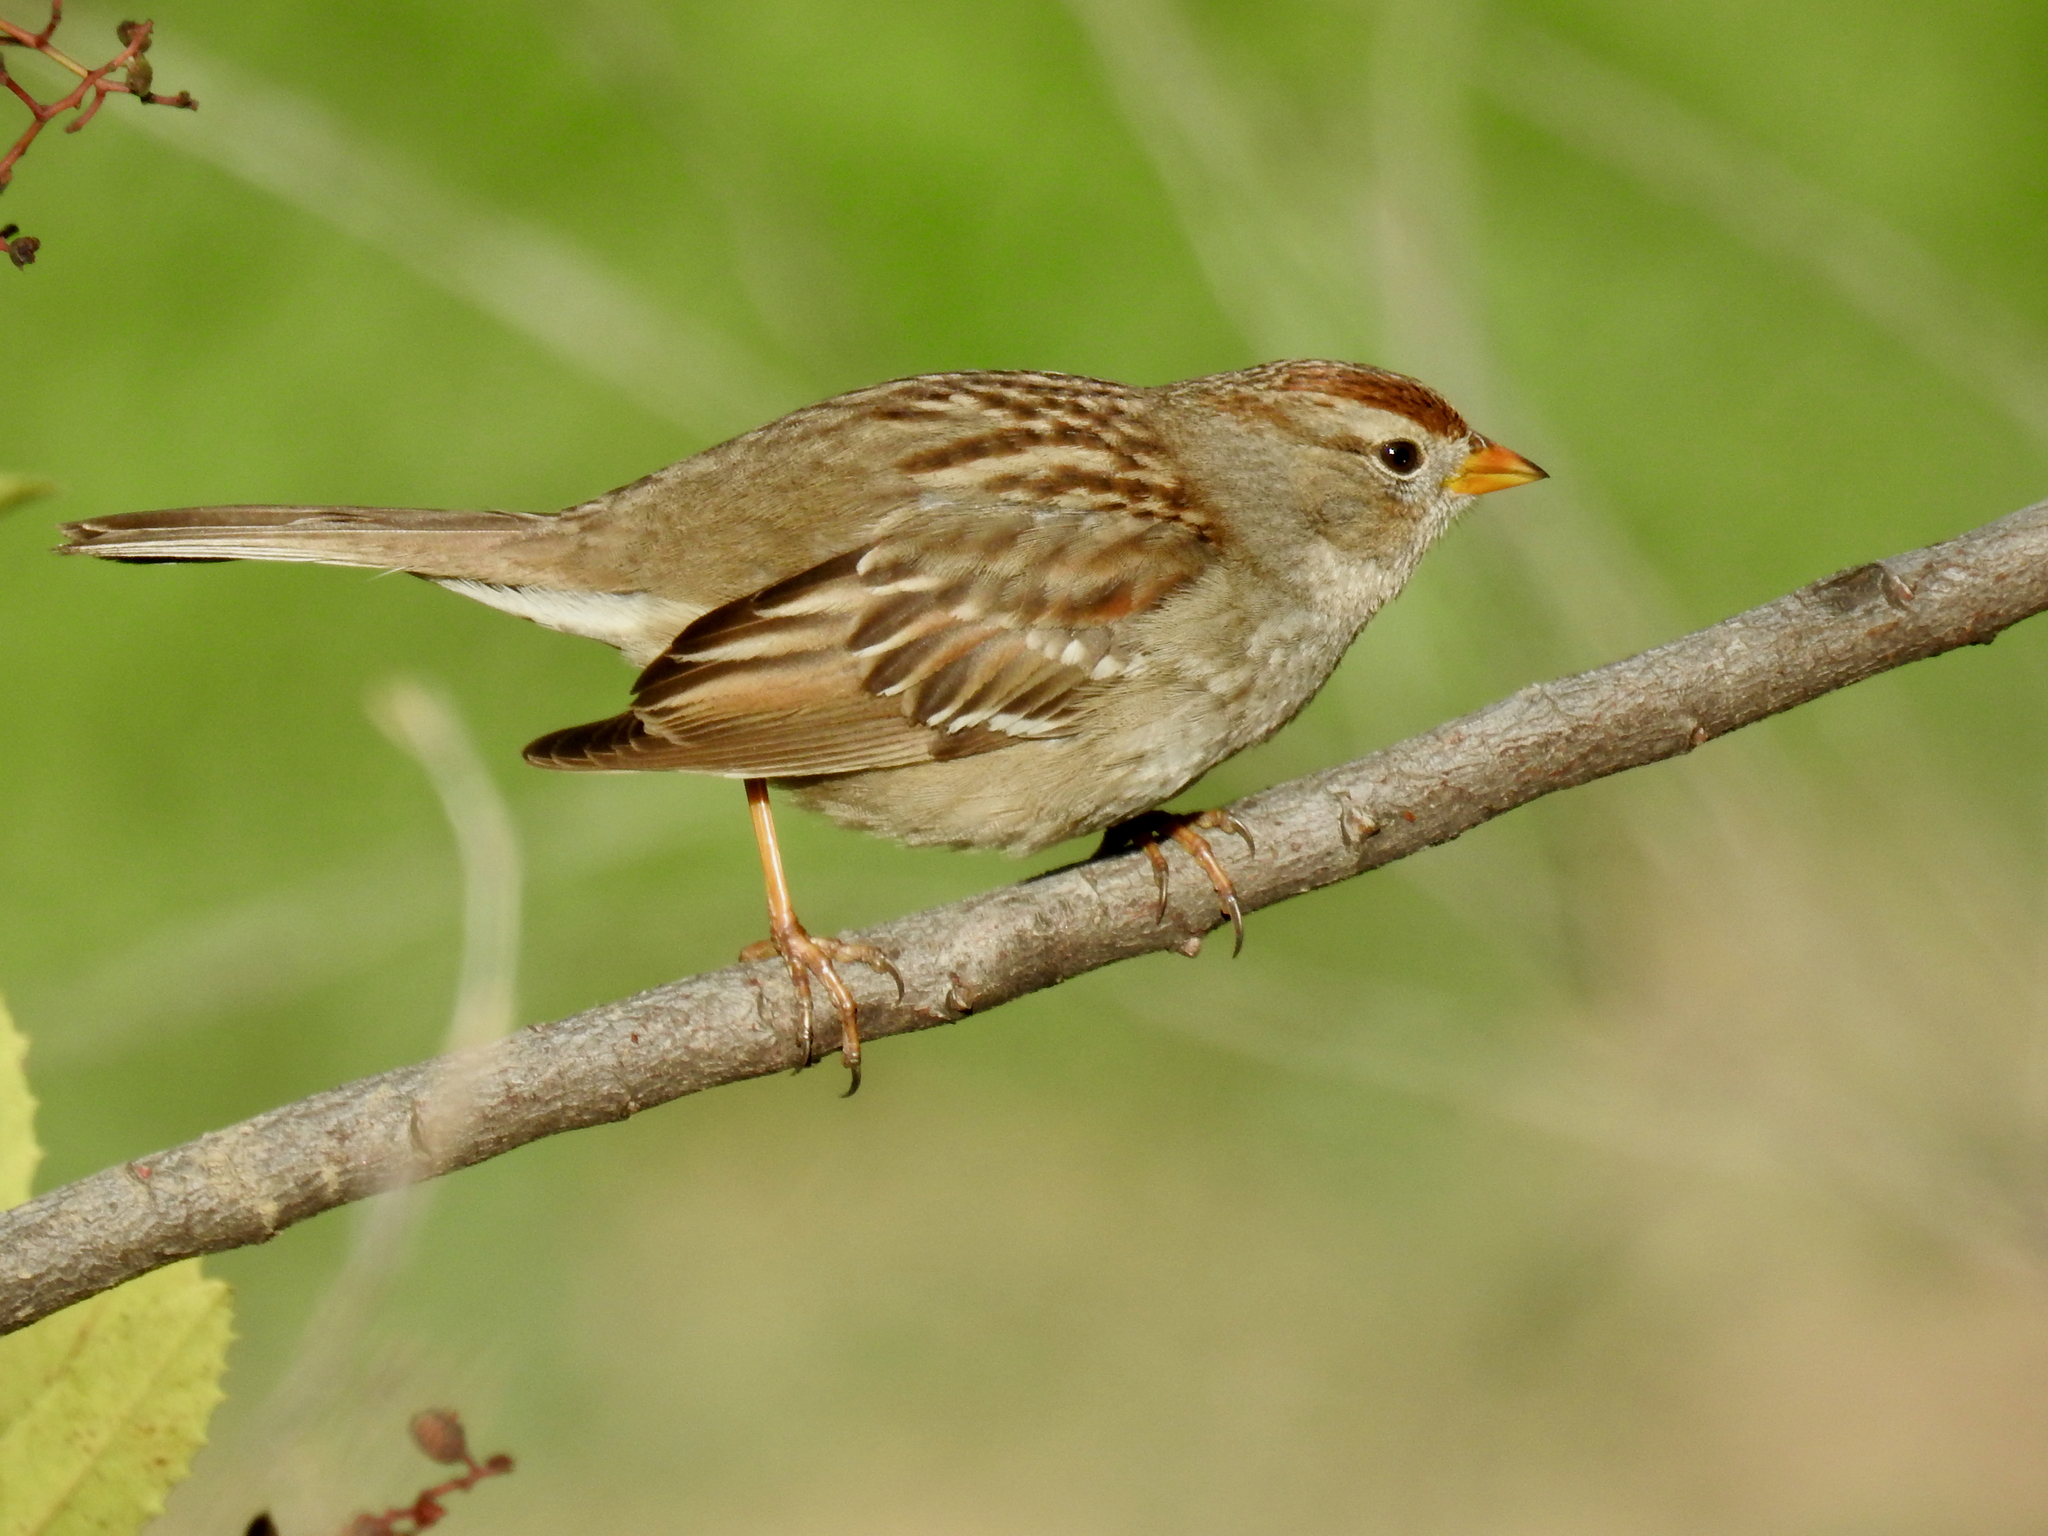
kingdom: Animalia
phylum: Chordata
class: Aves
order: Passeriformes
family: Passerellidae
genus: Zonotrichia
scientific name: Zonotrichia leucophrys
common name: White-crowned sparrow
